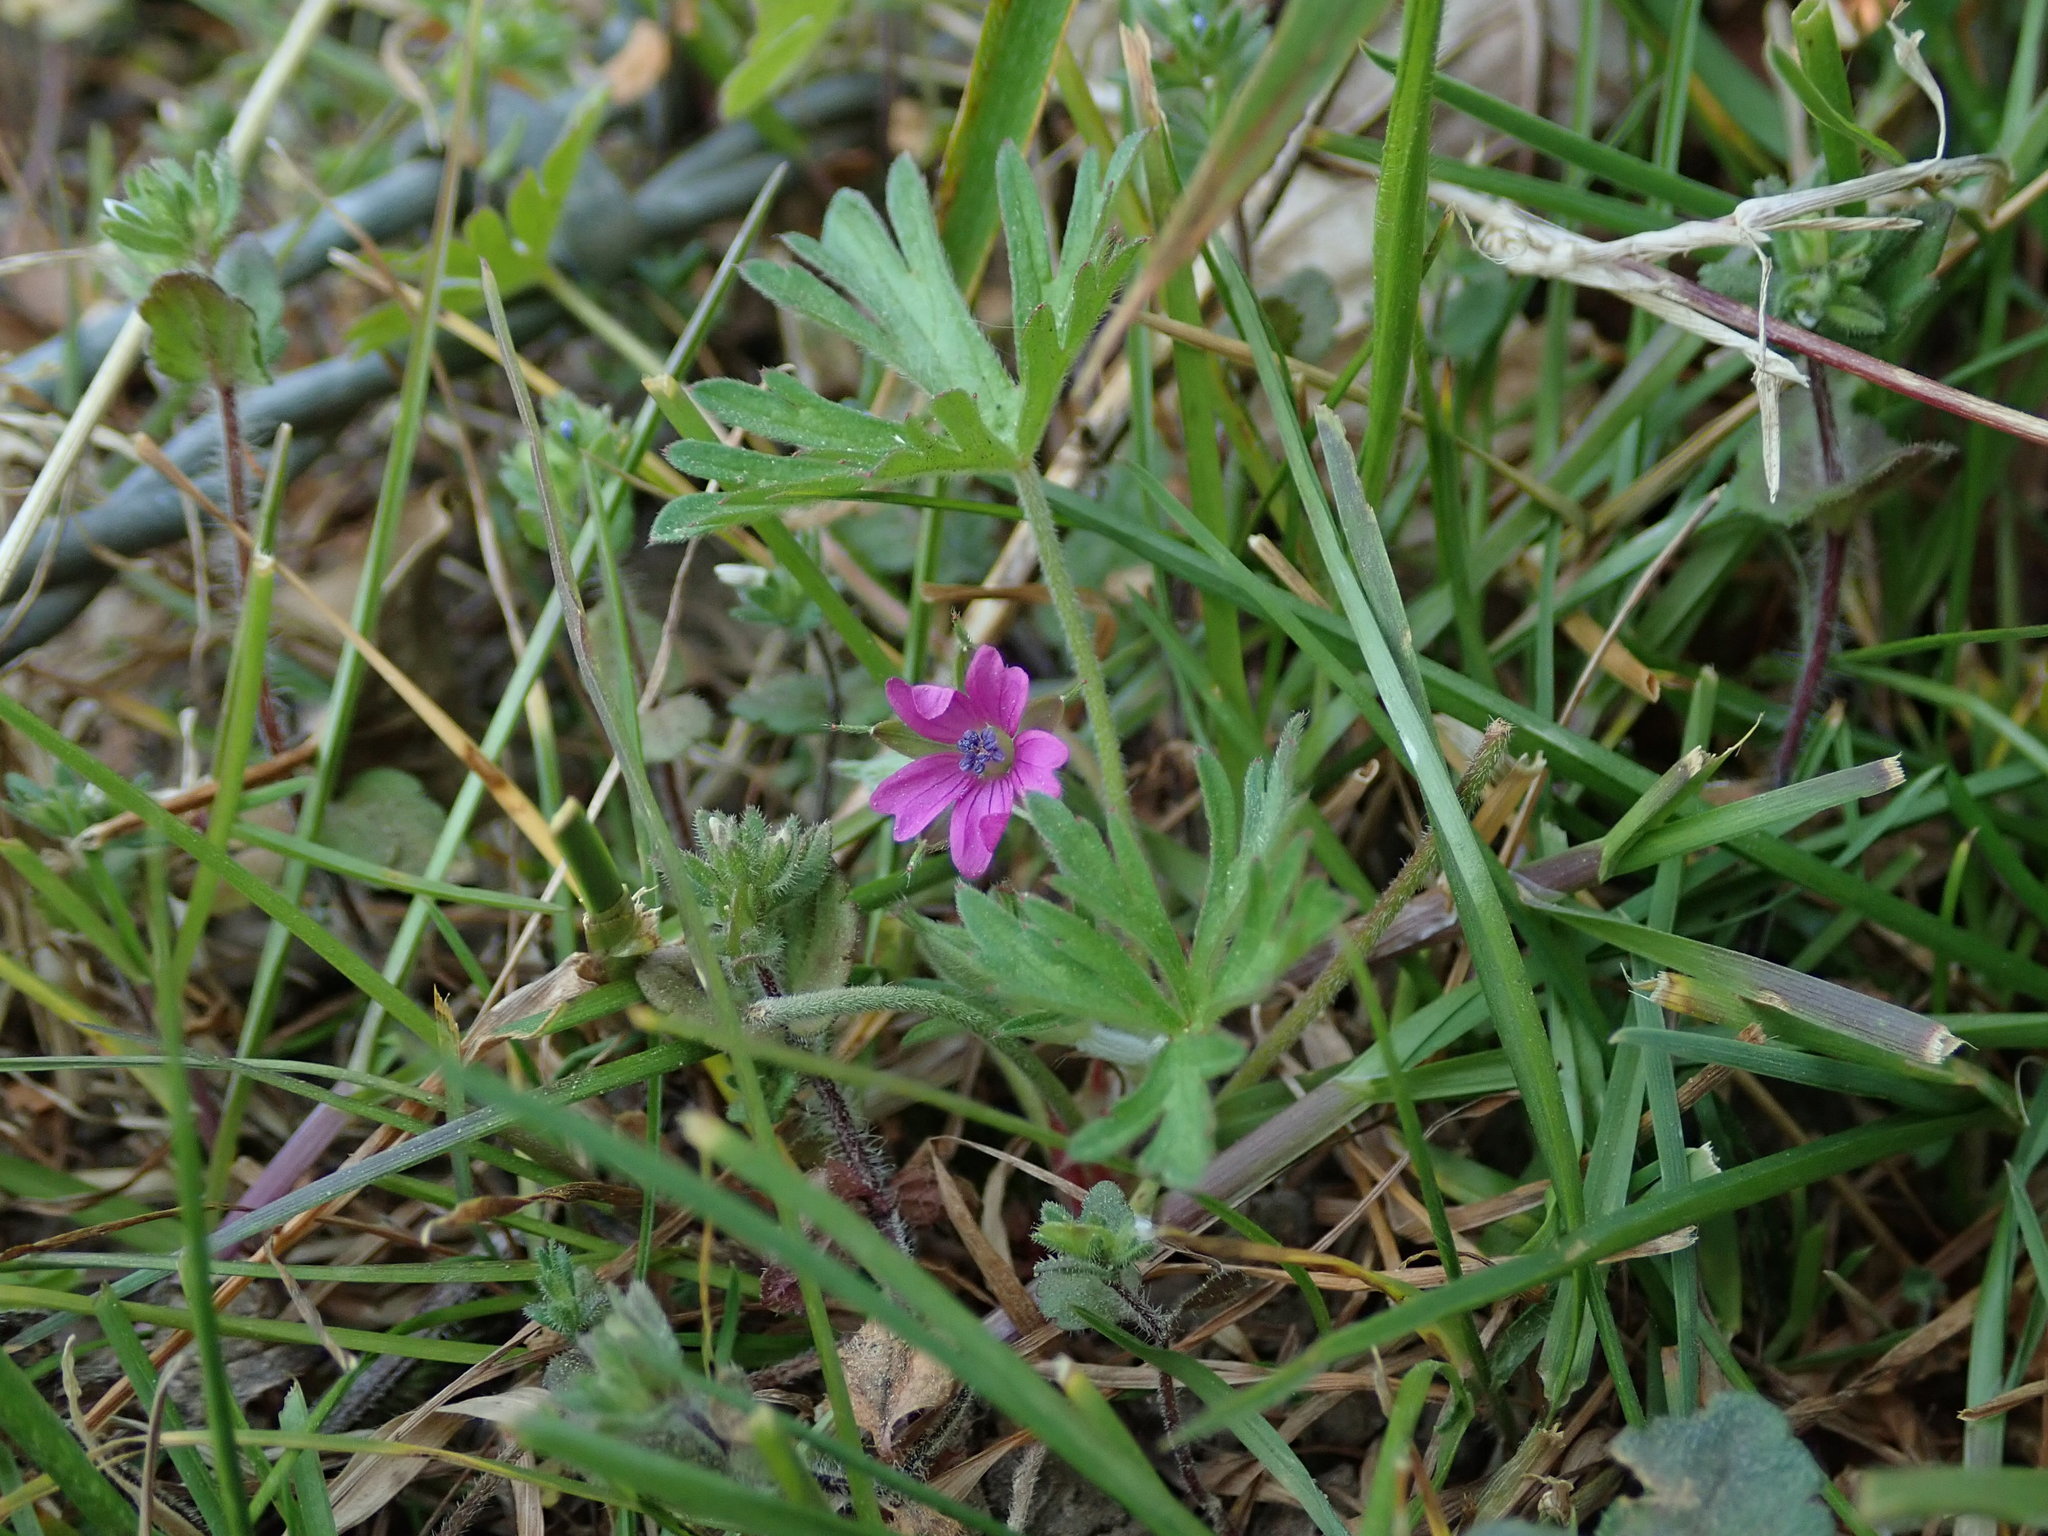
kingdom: Plantae
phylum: Tracheophyta
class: Magnoliopsida
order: Geraniales
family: Geraniaceae
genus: Geranium
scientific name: Geranium dissectum
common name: Cut-leaved crane's-bill
